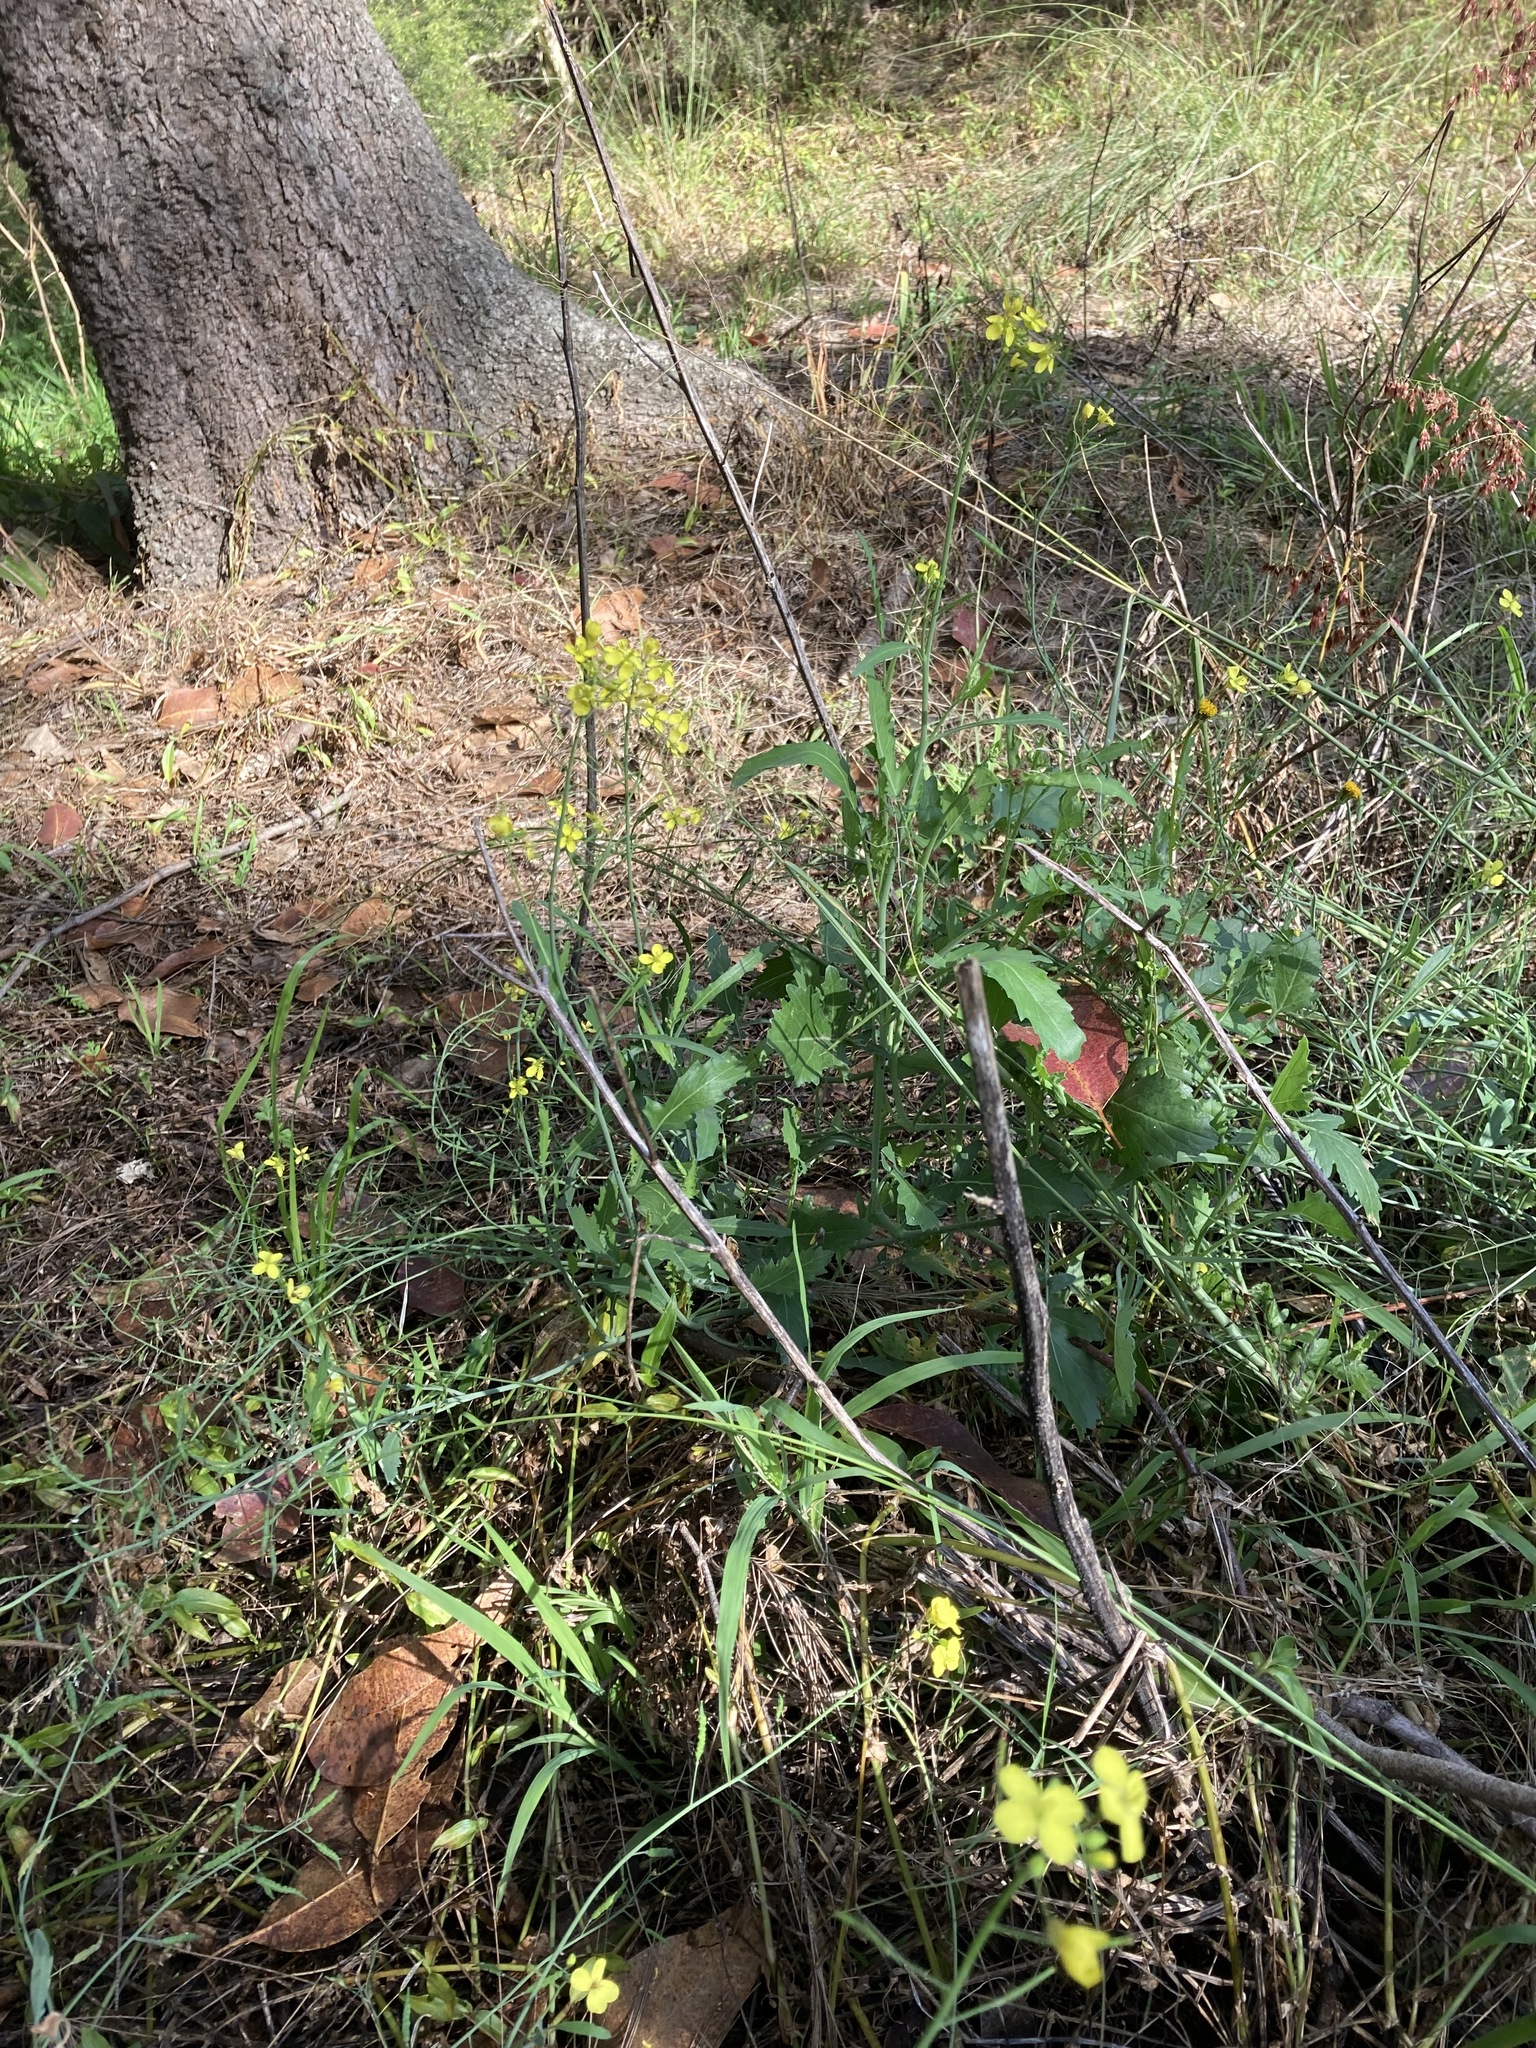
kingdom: Plantae
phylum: Tracheophyta
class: Magnoliopsida
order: Brassicales
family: Brassicaceae
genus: Brassica
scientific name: Brassica fruticulosa
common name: Twiggy turnip
